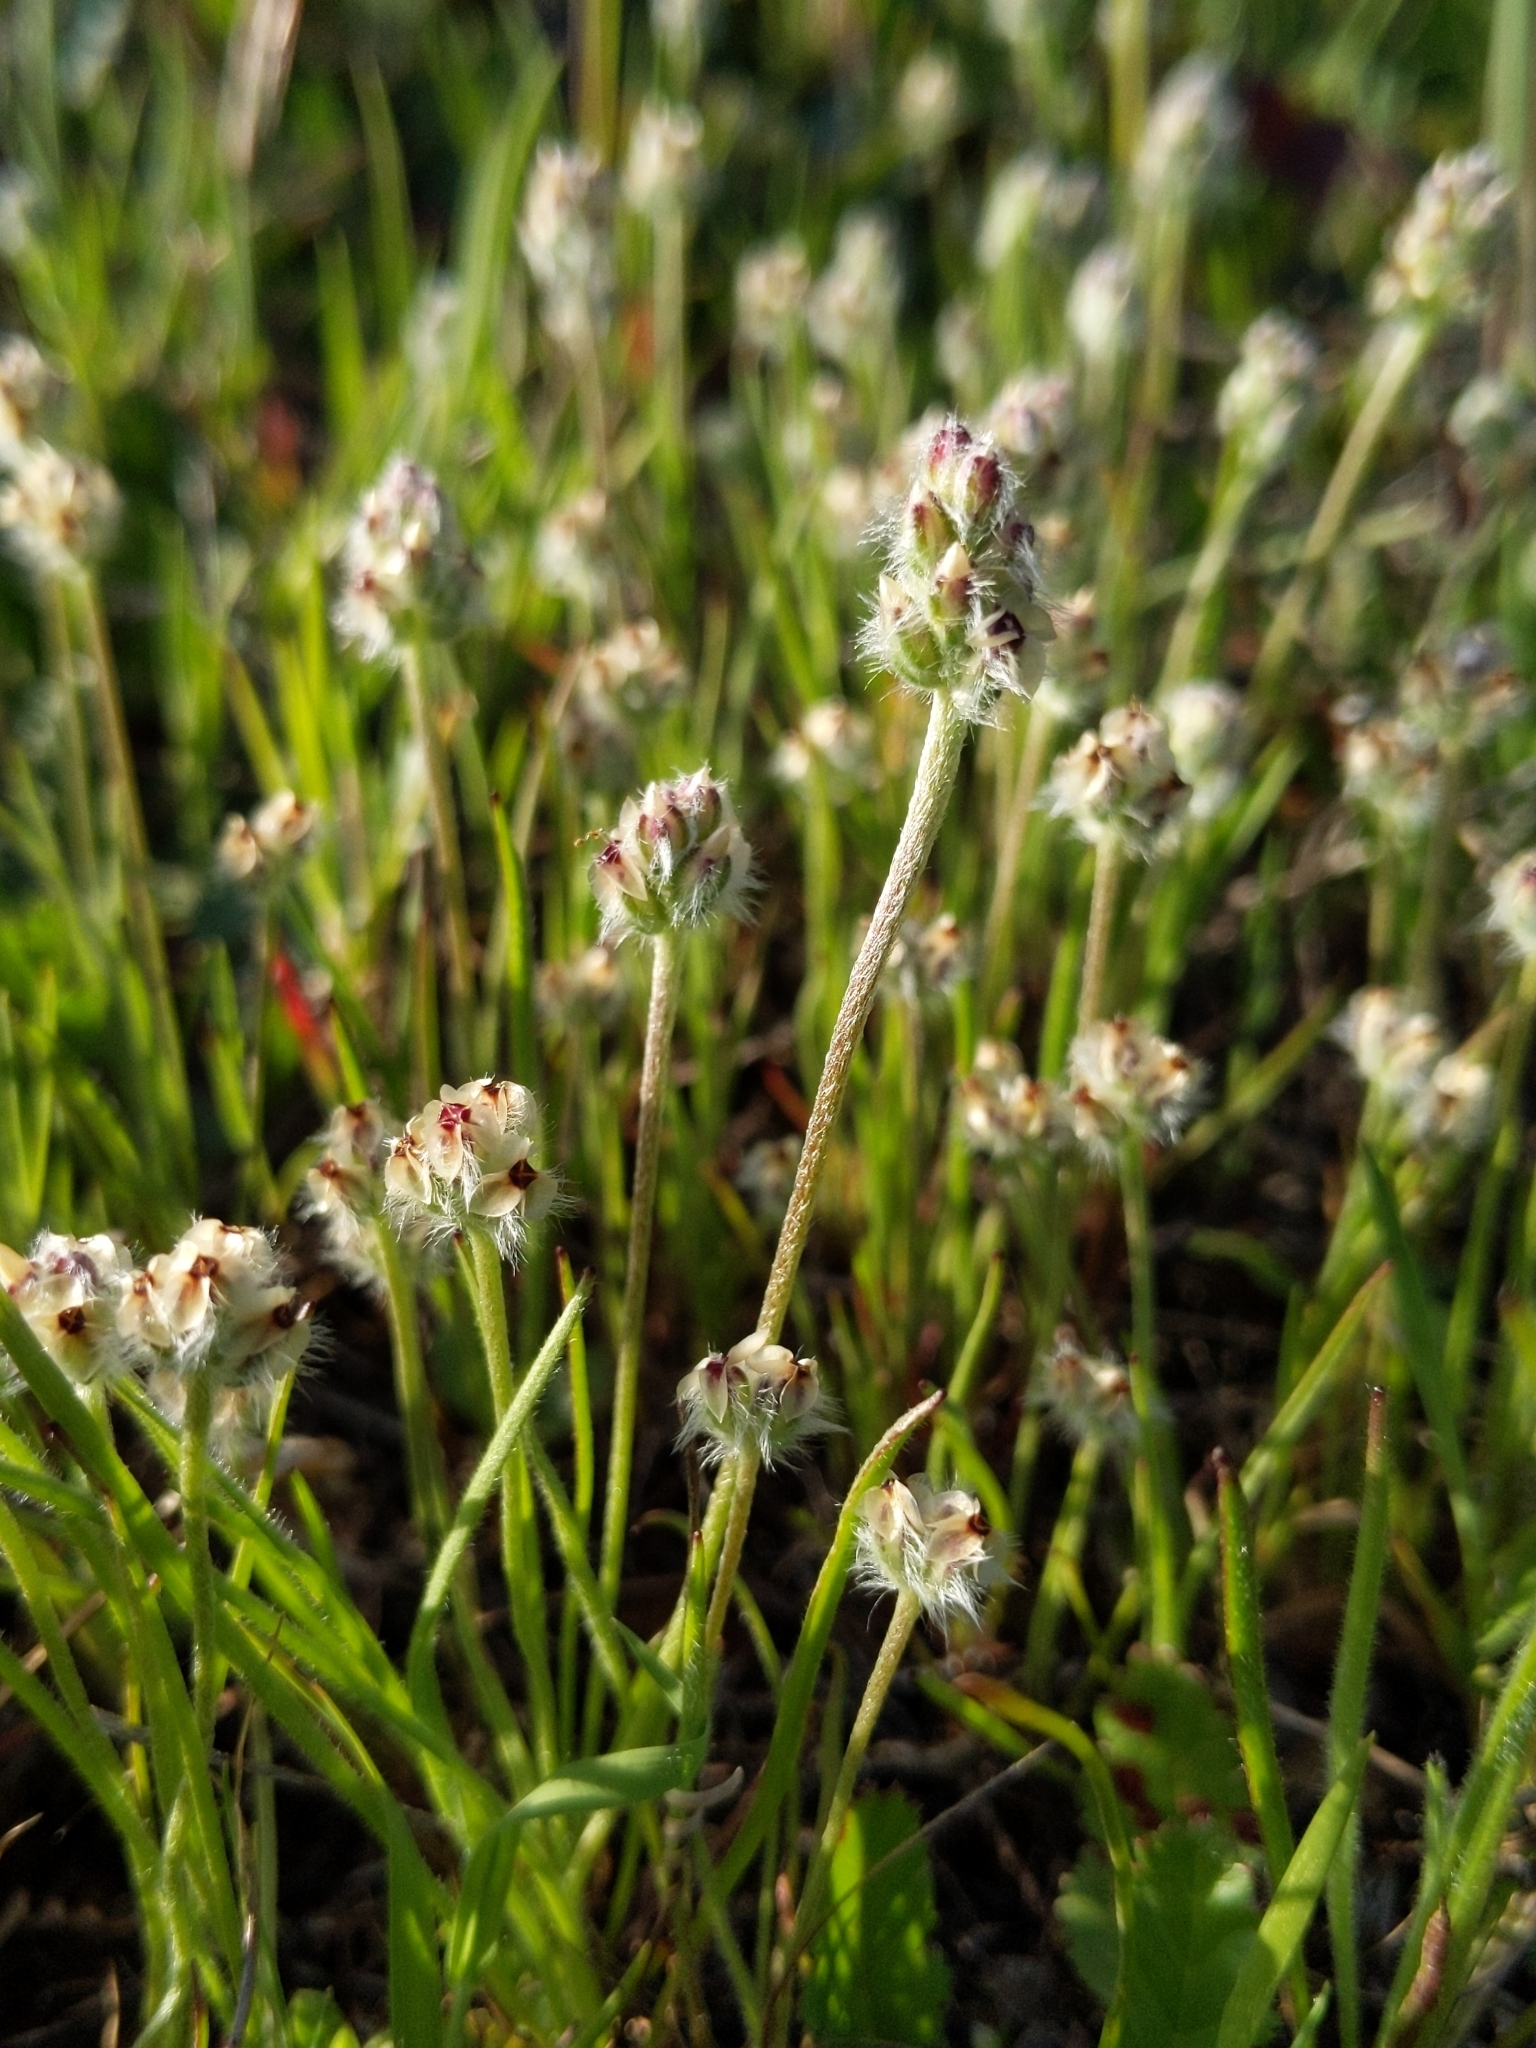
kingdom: Plantae
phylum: Tracheophyta
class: Magnoliopsida
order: Lamiales
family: Plantaginaceae
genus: Plantago
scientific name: Plantago erecta
